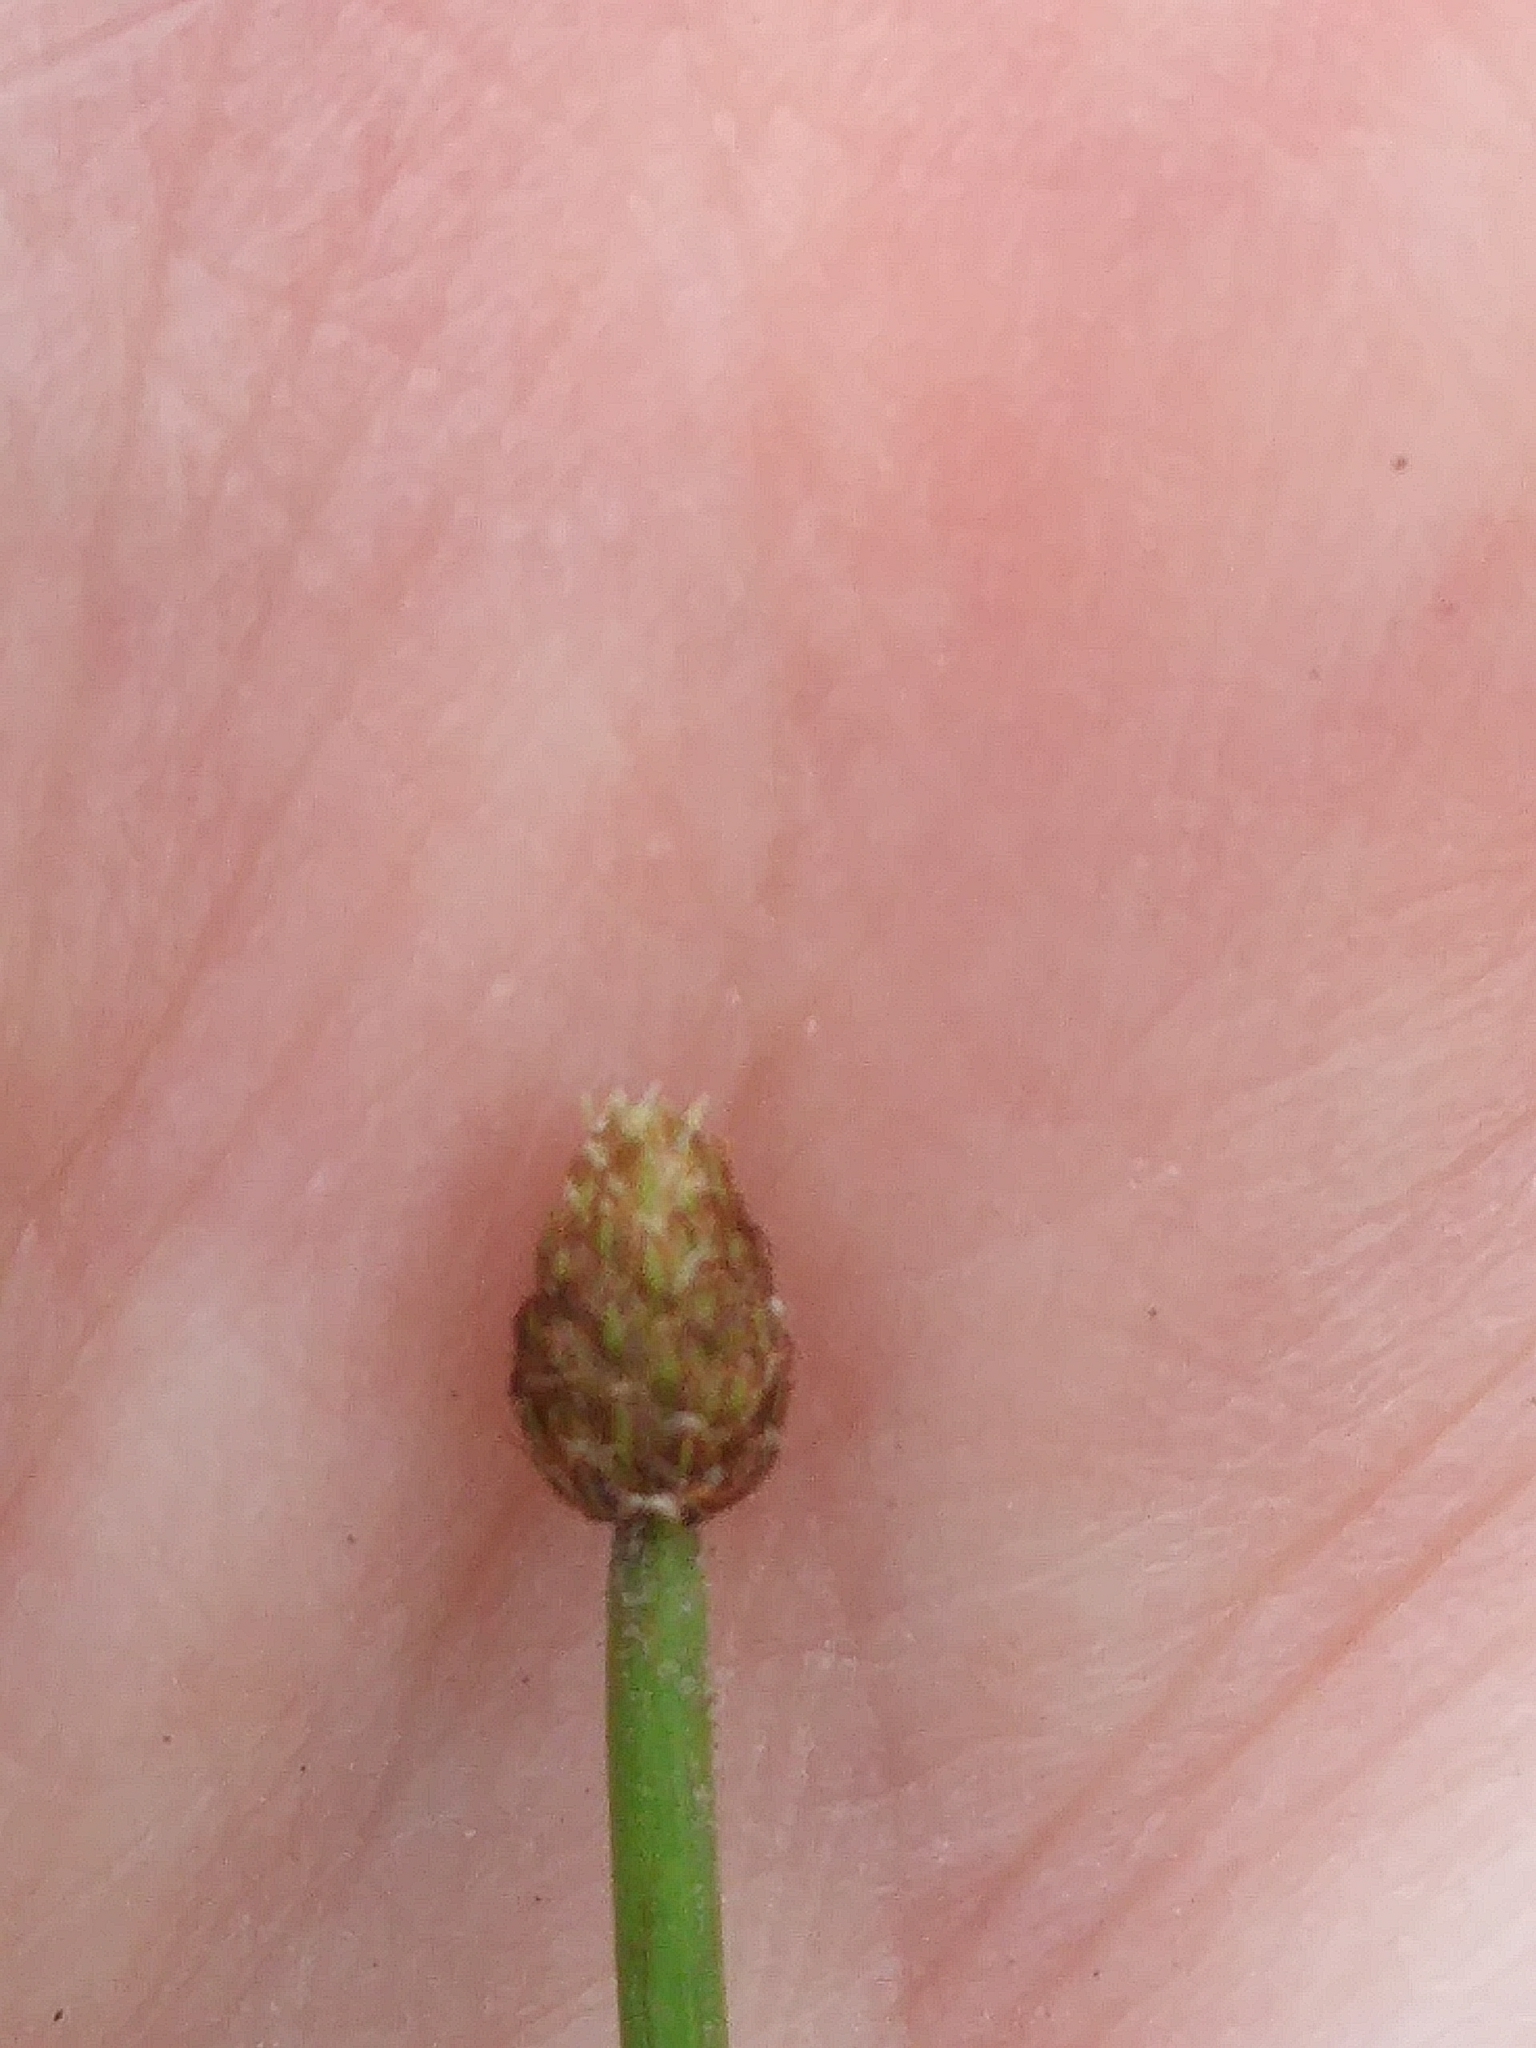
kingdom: Plantae
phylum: Tracheophyta
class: Liliopsida
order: Poales
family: Cyperaceae
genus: Eleocharis
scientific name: Eleocharis obtusa
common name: Blunt spikerush
